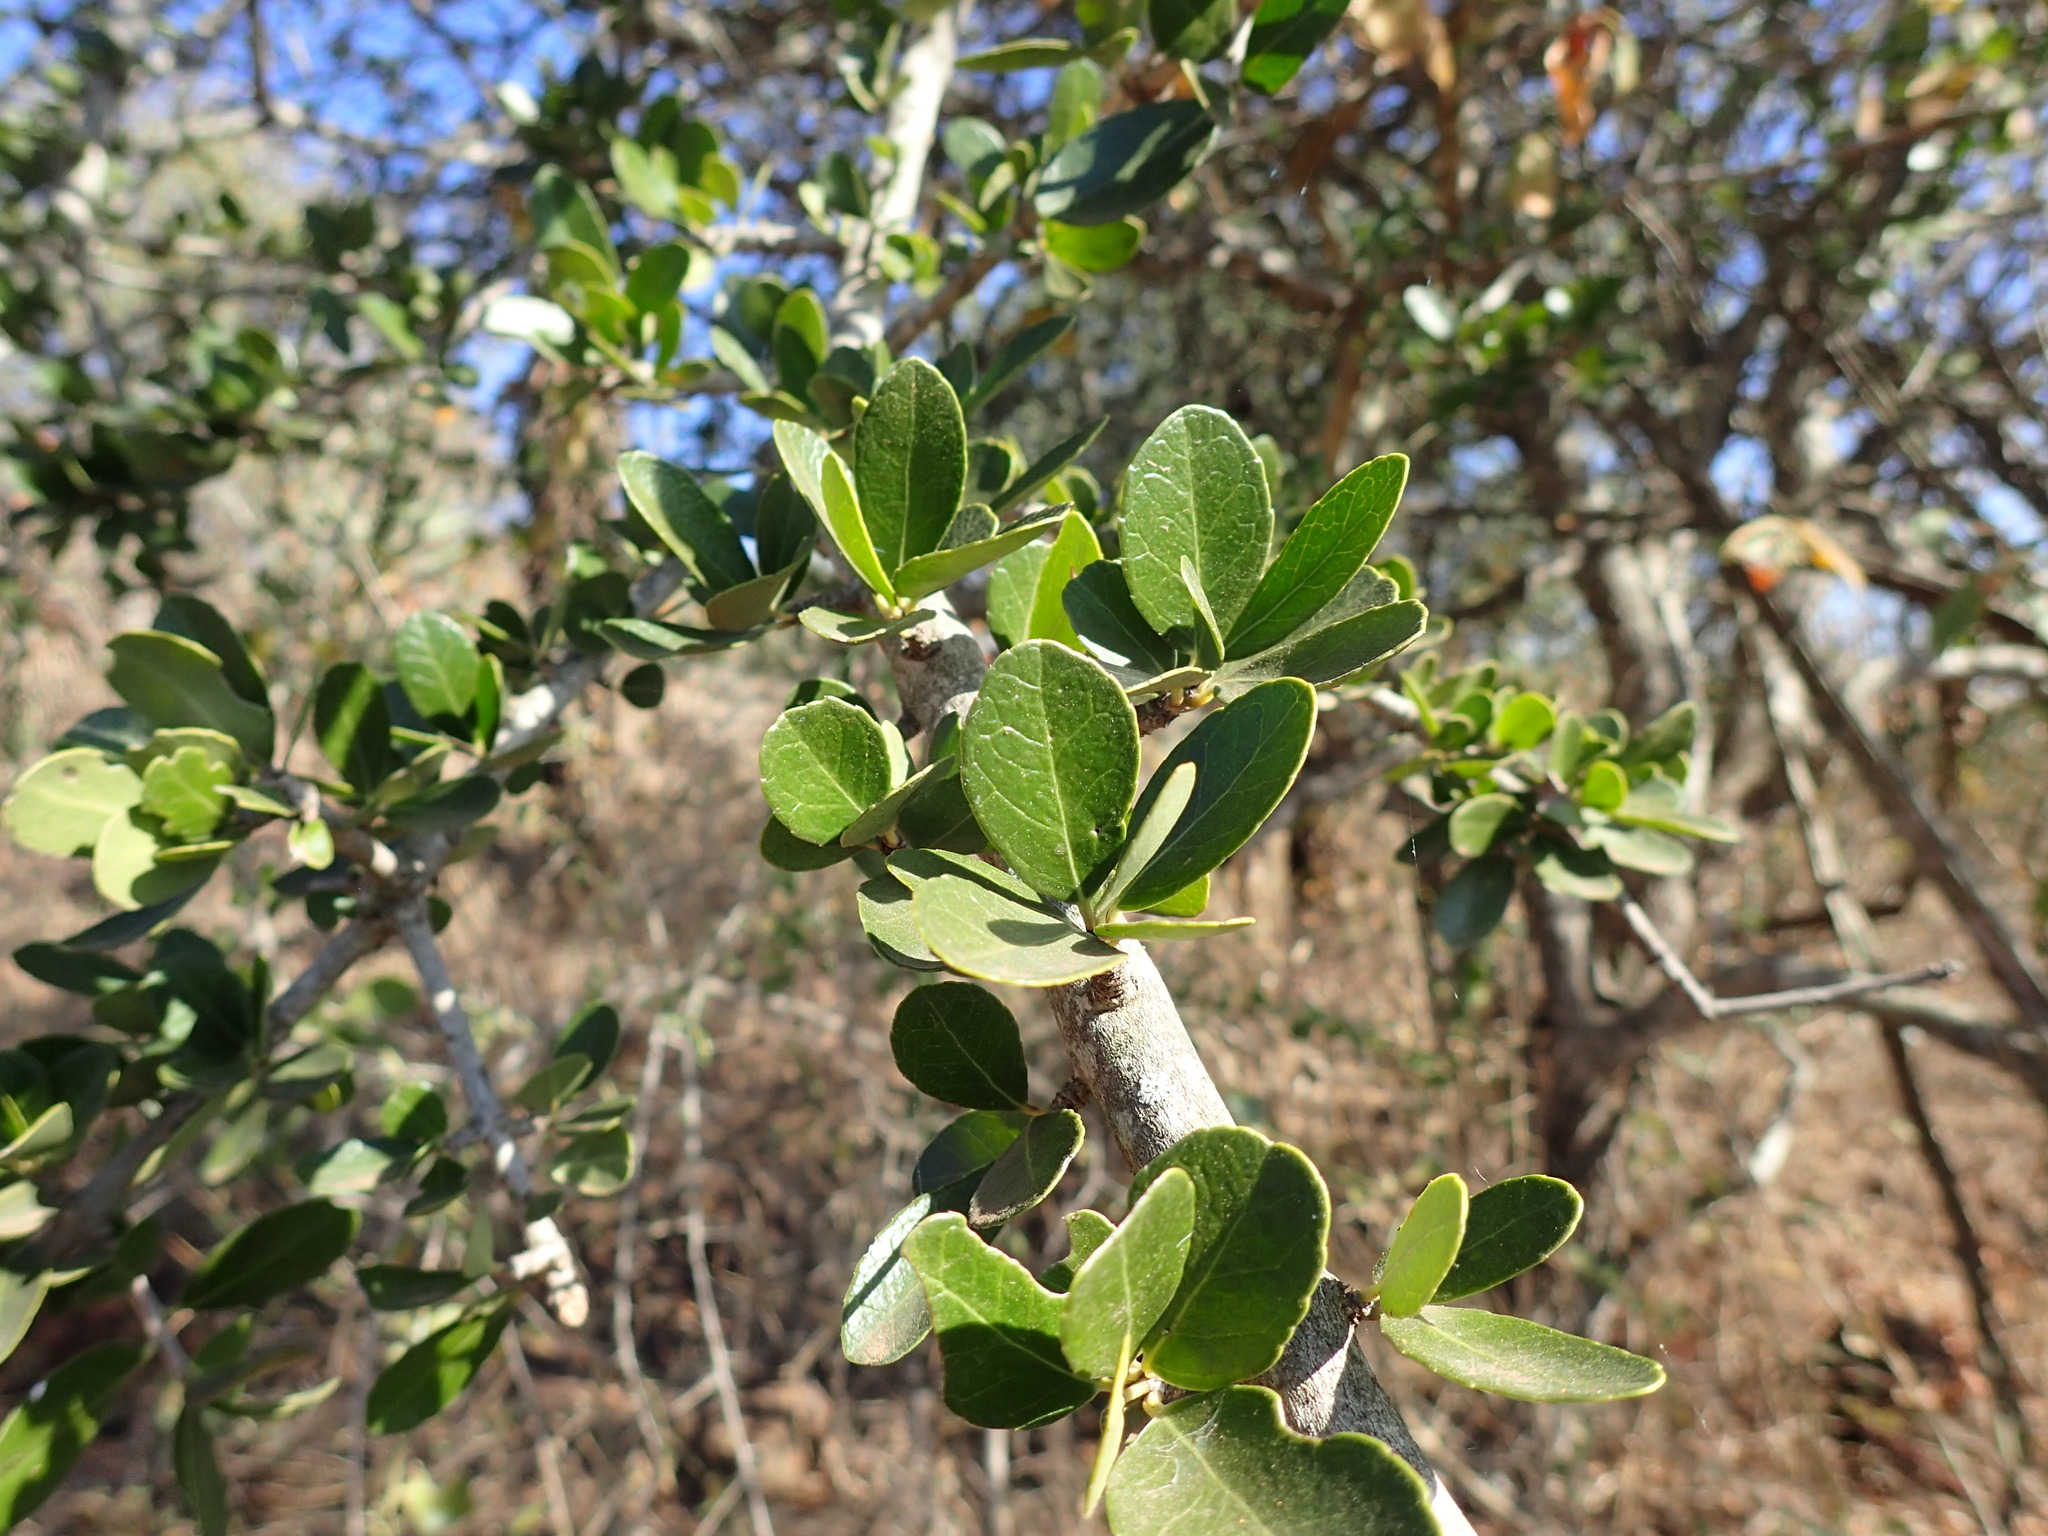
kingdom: Plantae
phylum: Tracheophyta
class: Magnoliopsida
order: Celastrales
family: Celastraceae
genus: Gymnosporia
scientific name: Gymnosporia undata
